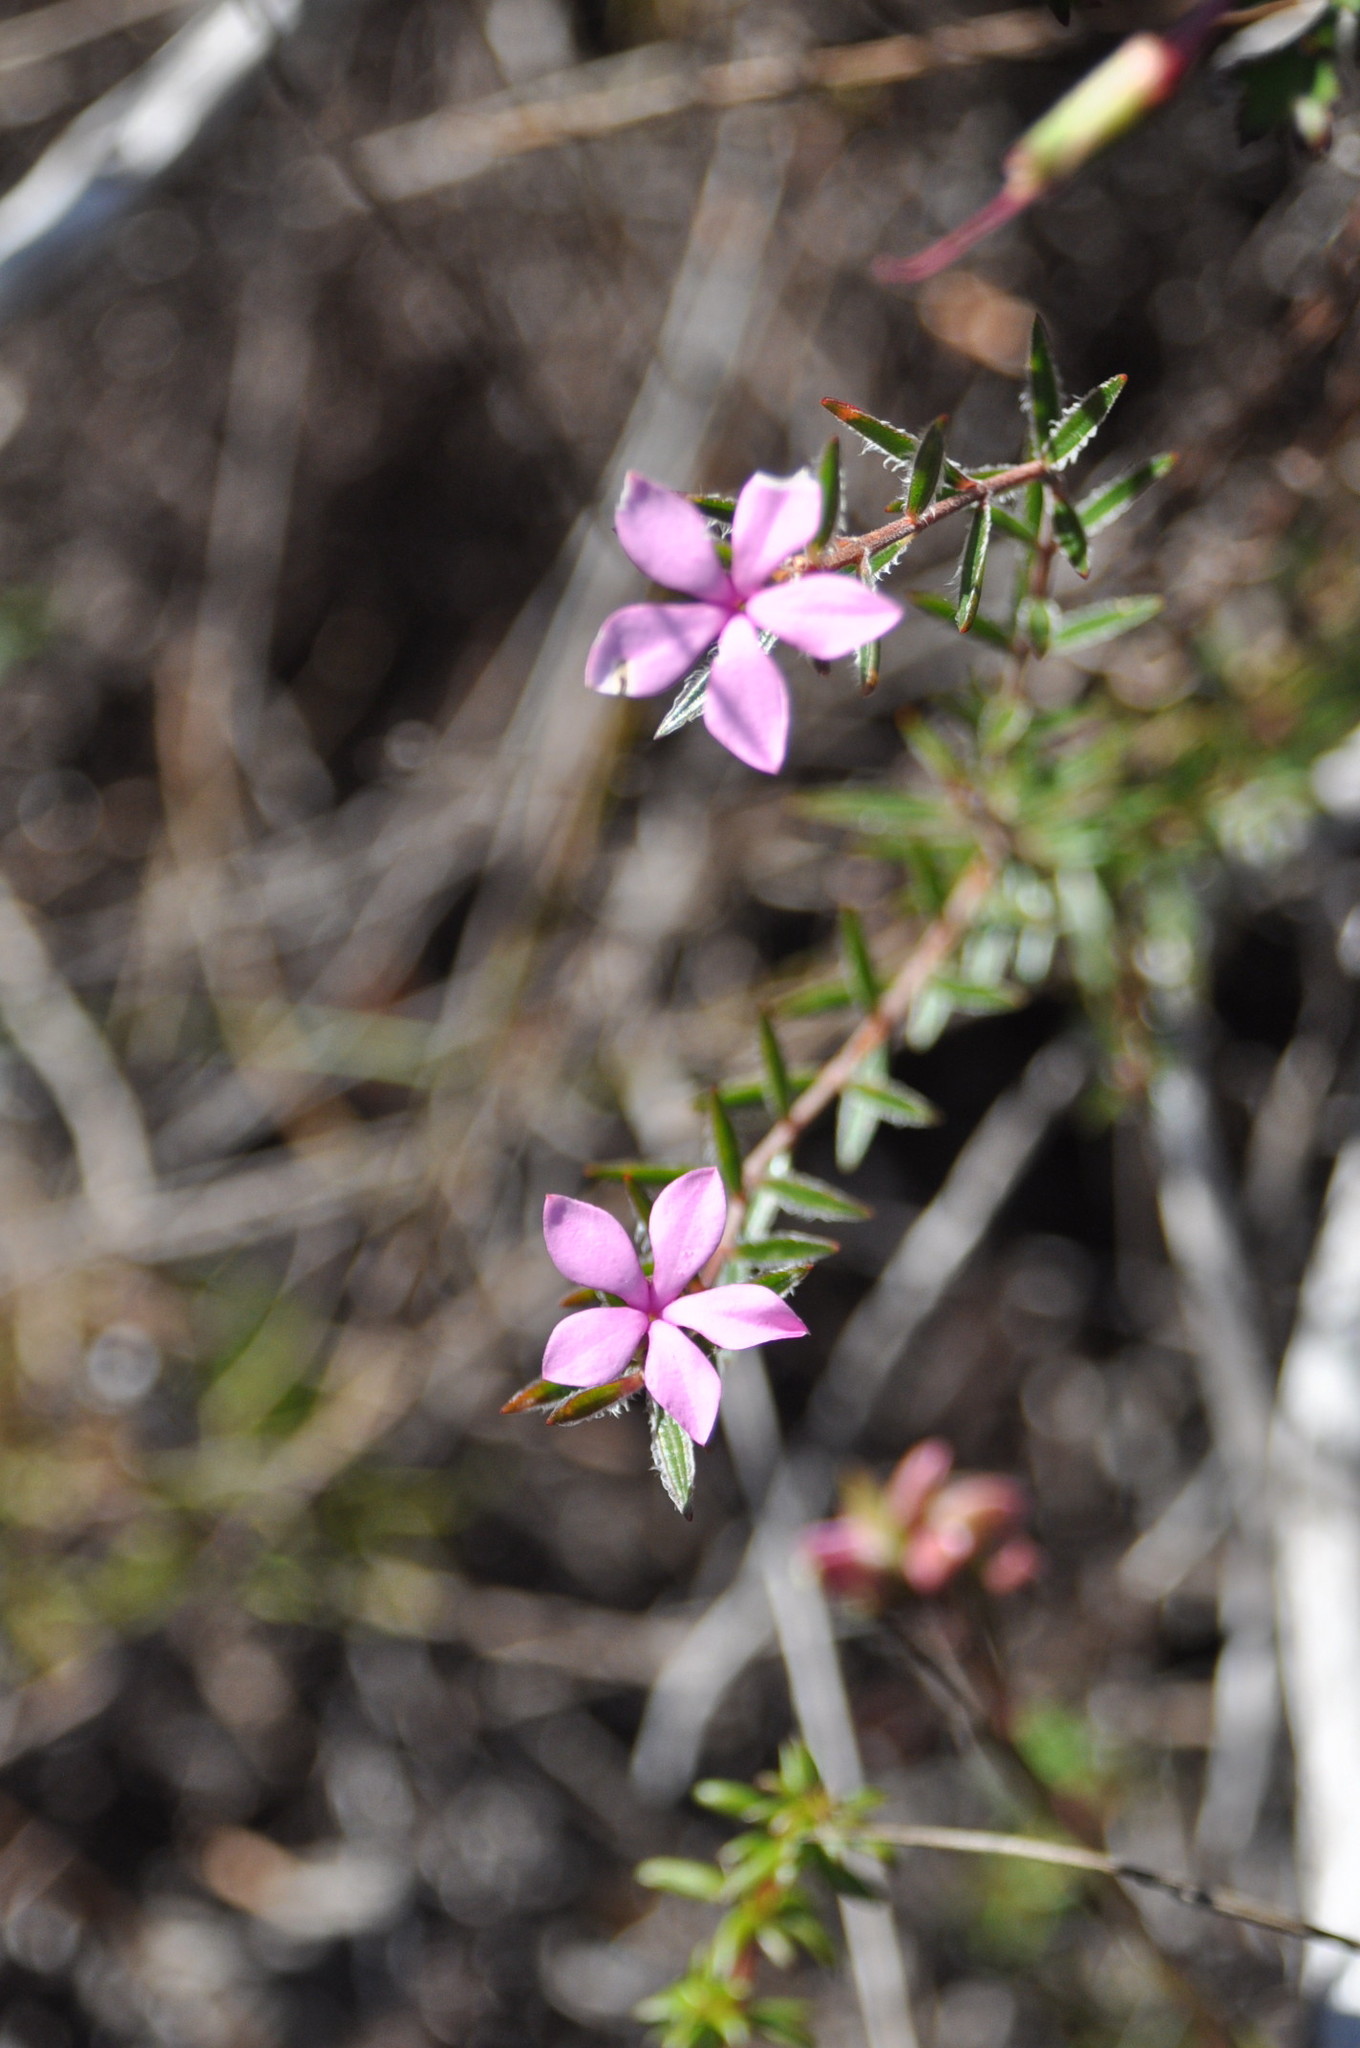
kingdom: Plantae
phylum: Tracheophyta
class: Magnoliopsida
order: Sapindales
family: Rutaceae
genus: Acmadenia
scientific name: Acmadenia trigona
